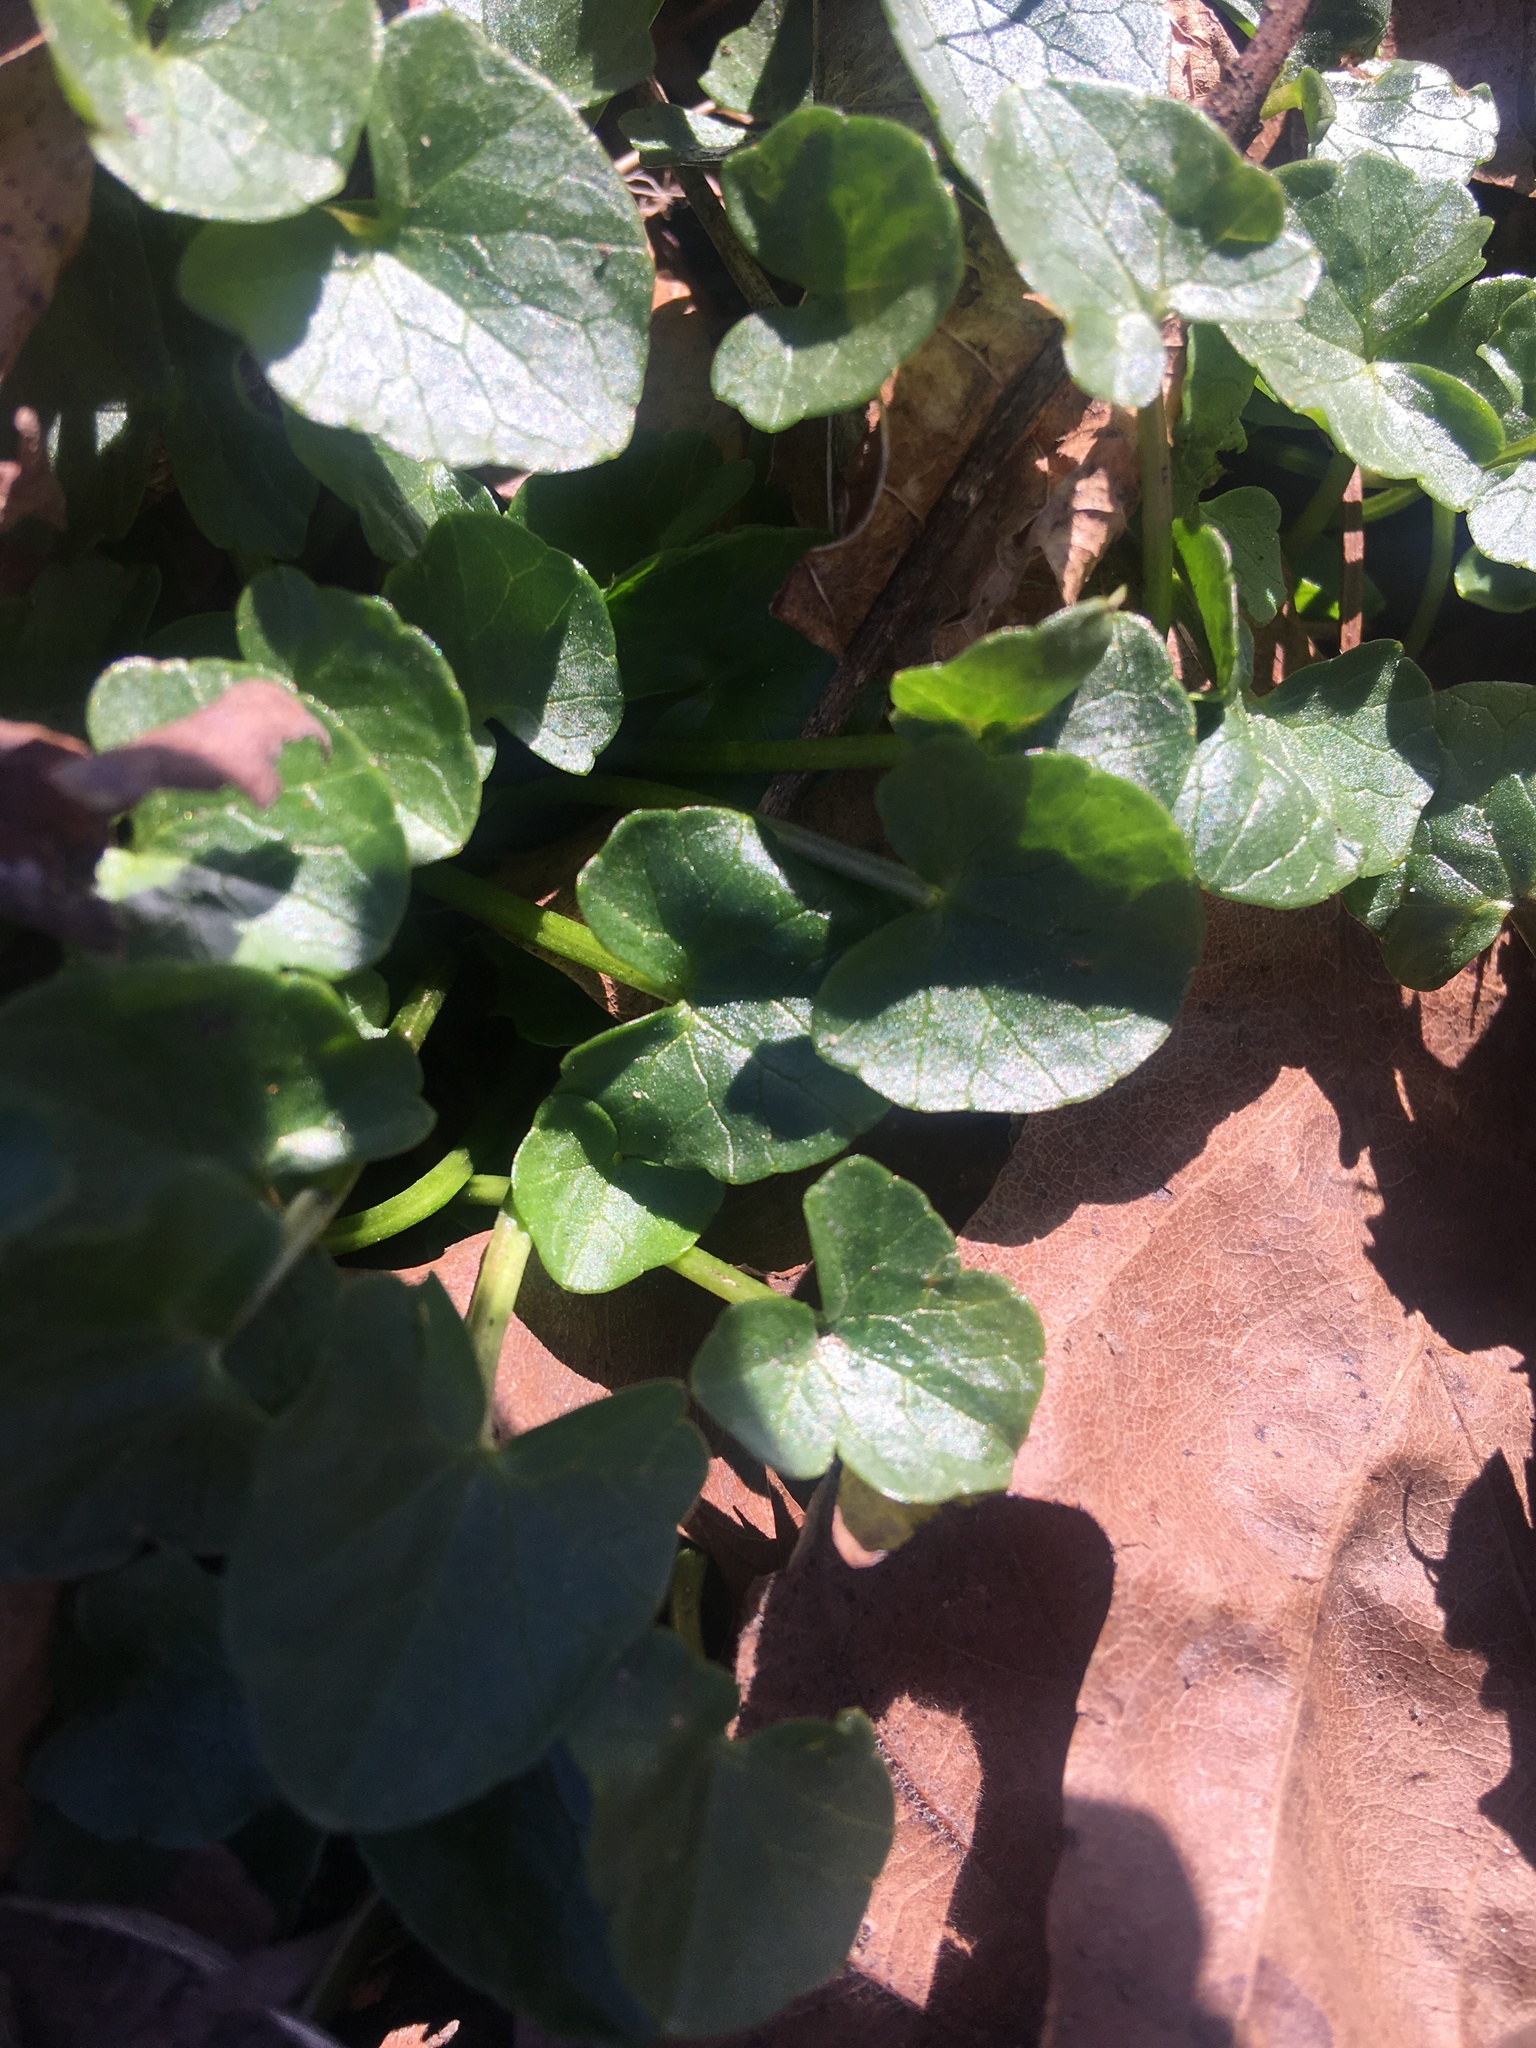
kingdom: Plantae
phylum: Tracheophyta
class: Magnoliopsida
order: Ranunculales
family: Ranunculaceae
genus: Ficaria
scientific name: Ficaria verna
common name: Lesser celandine
